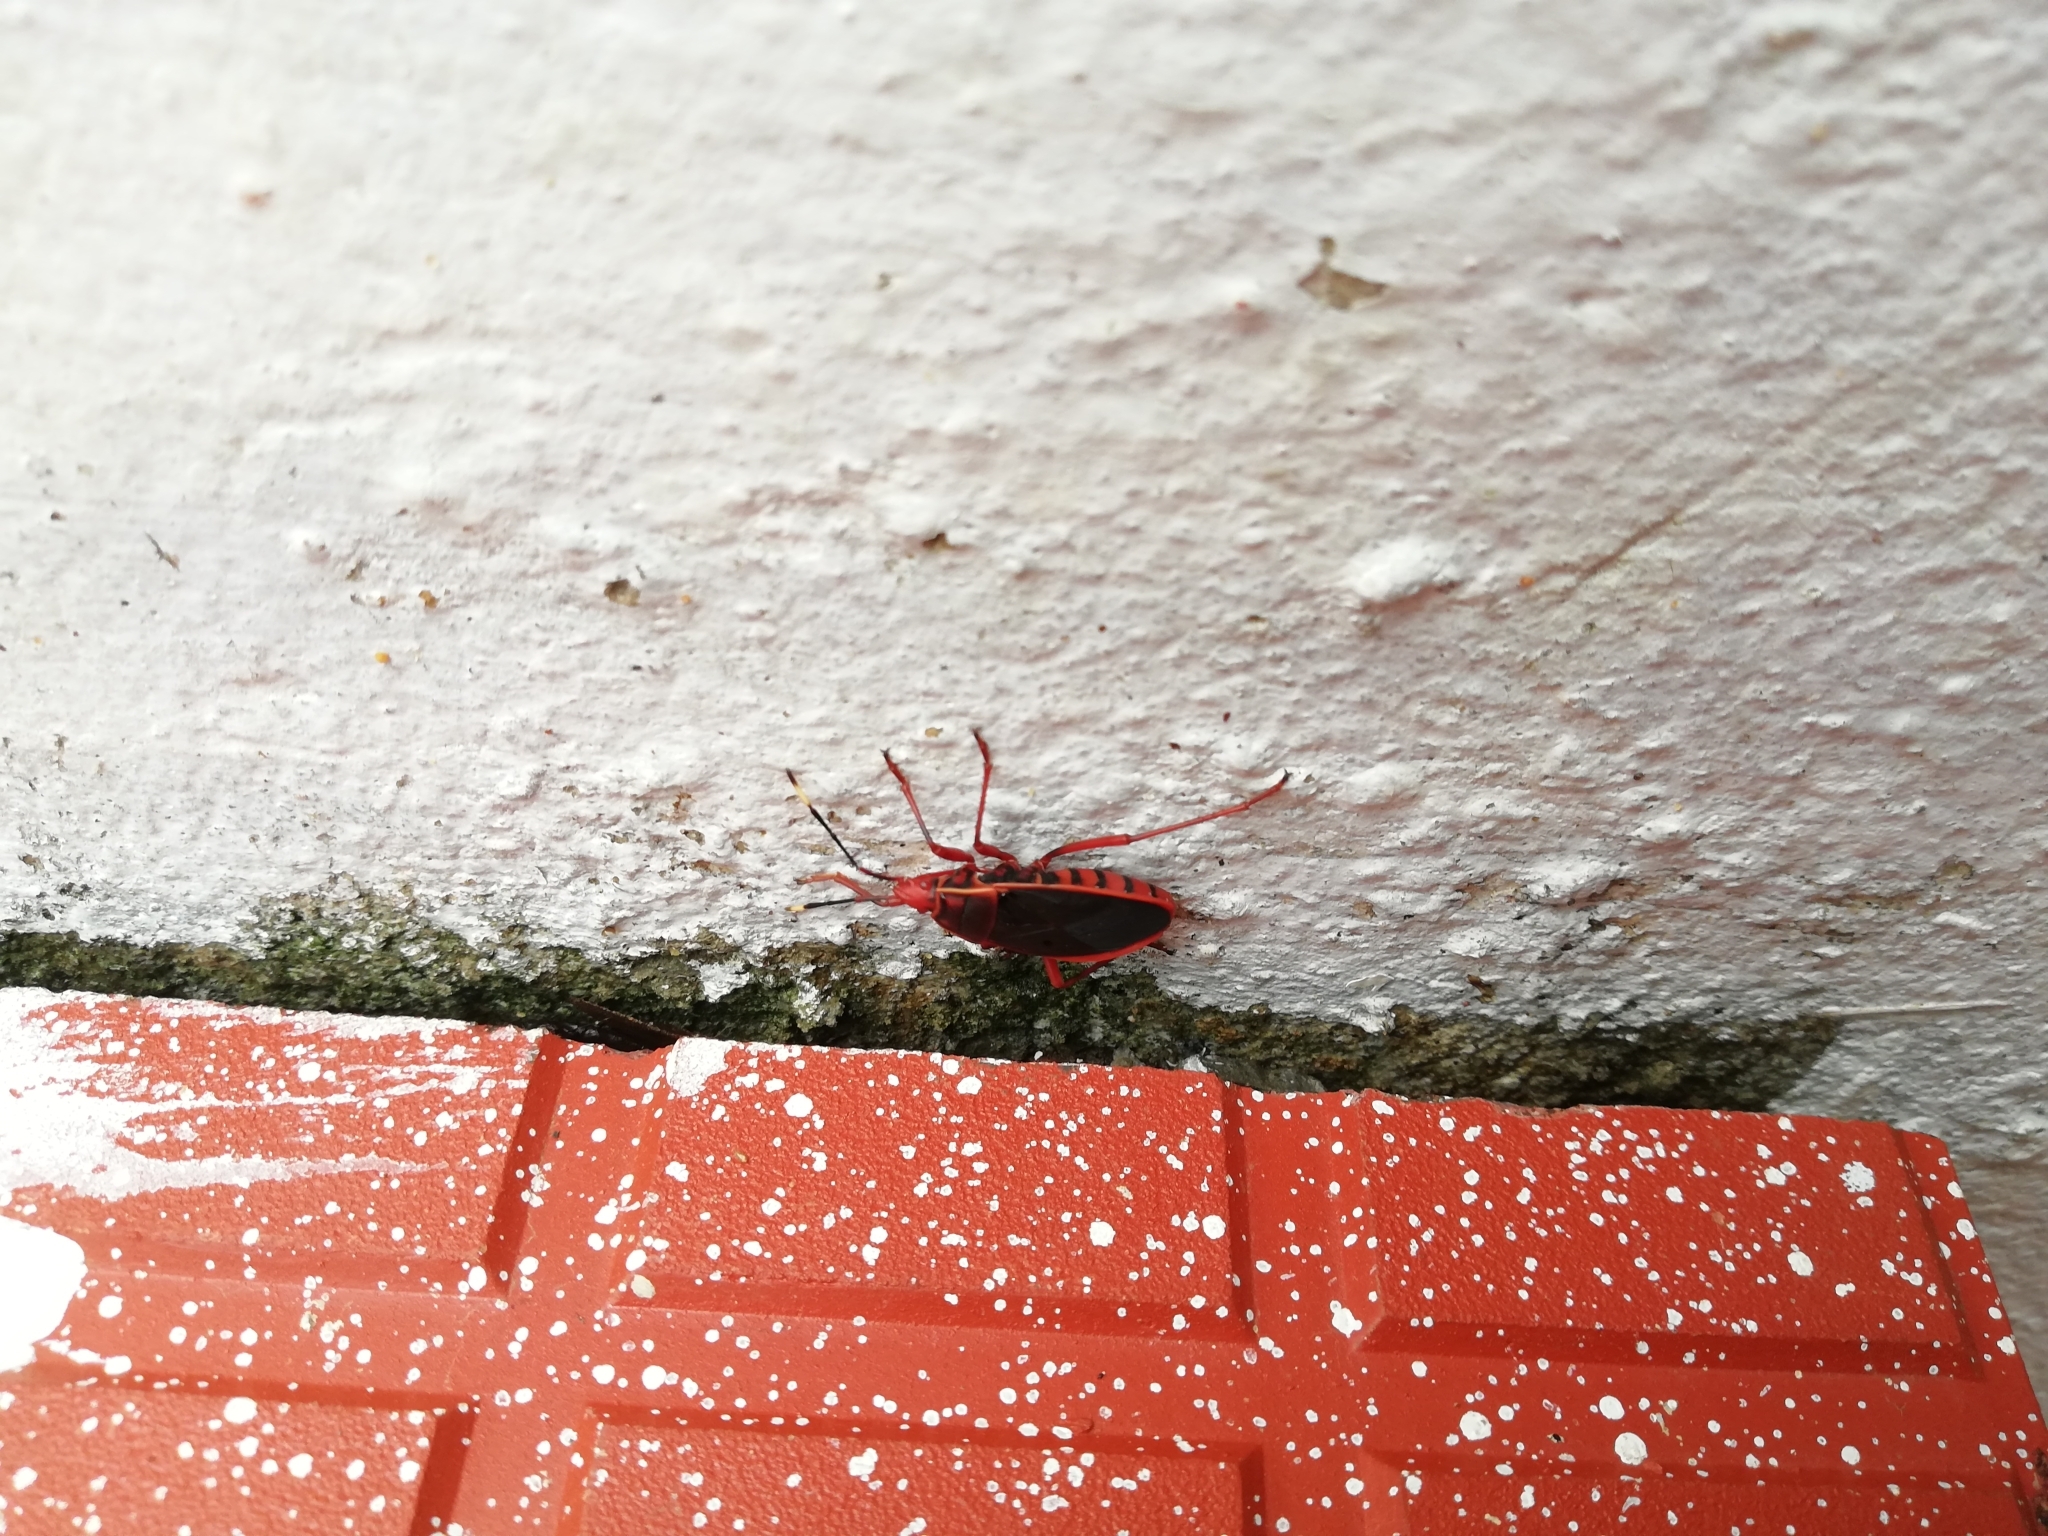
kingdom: Animalia
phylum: Arthropoda
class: Insecta
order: Hemiptera
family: Pyrrhocoridae
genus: Probergrothius
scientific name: Probergrothius
